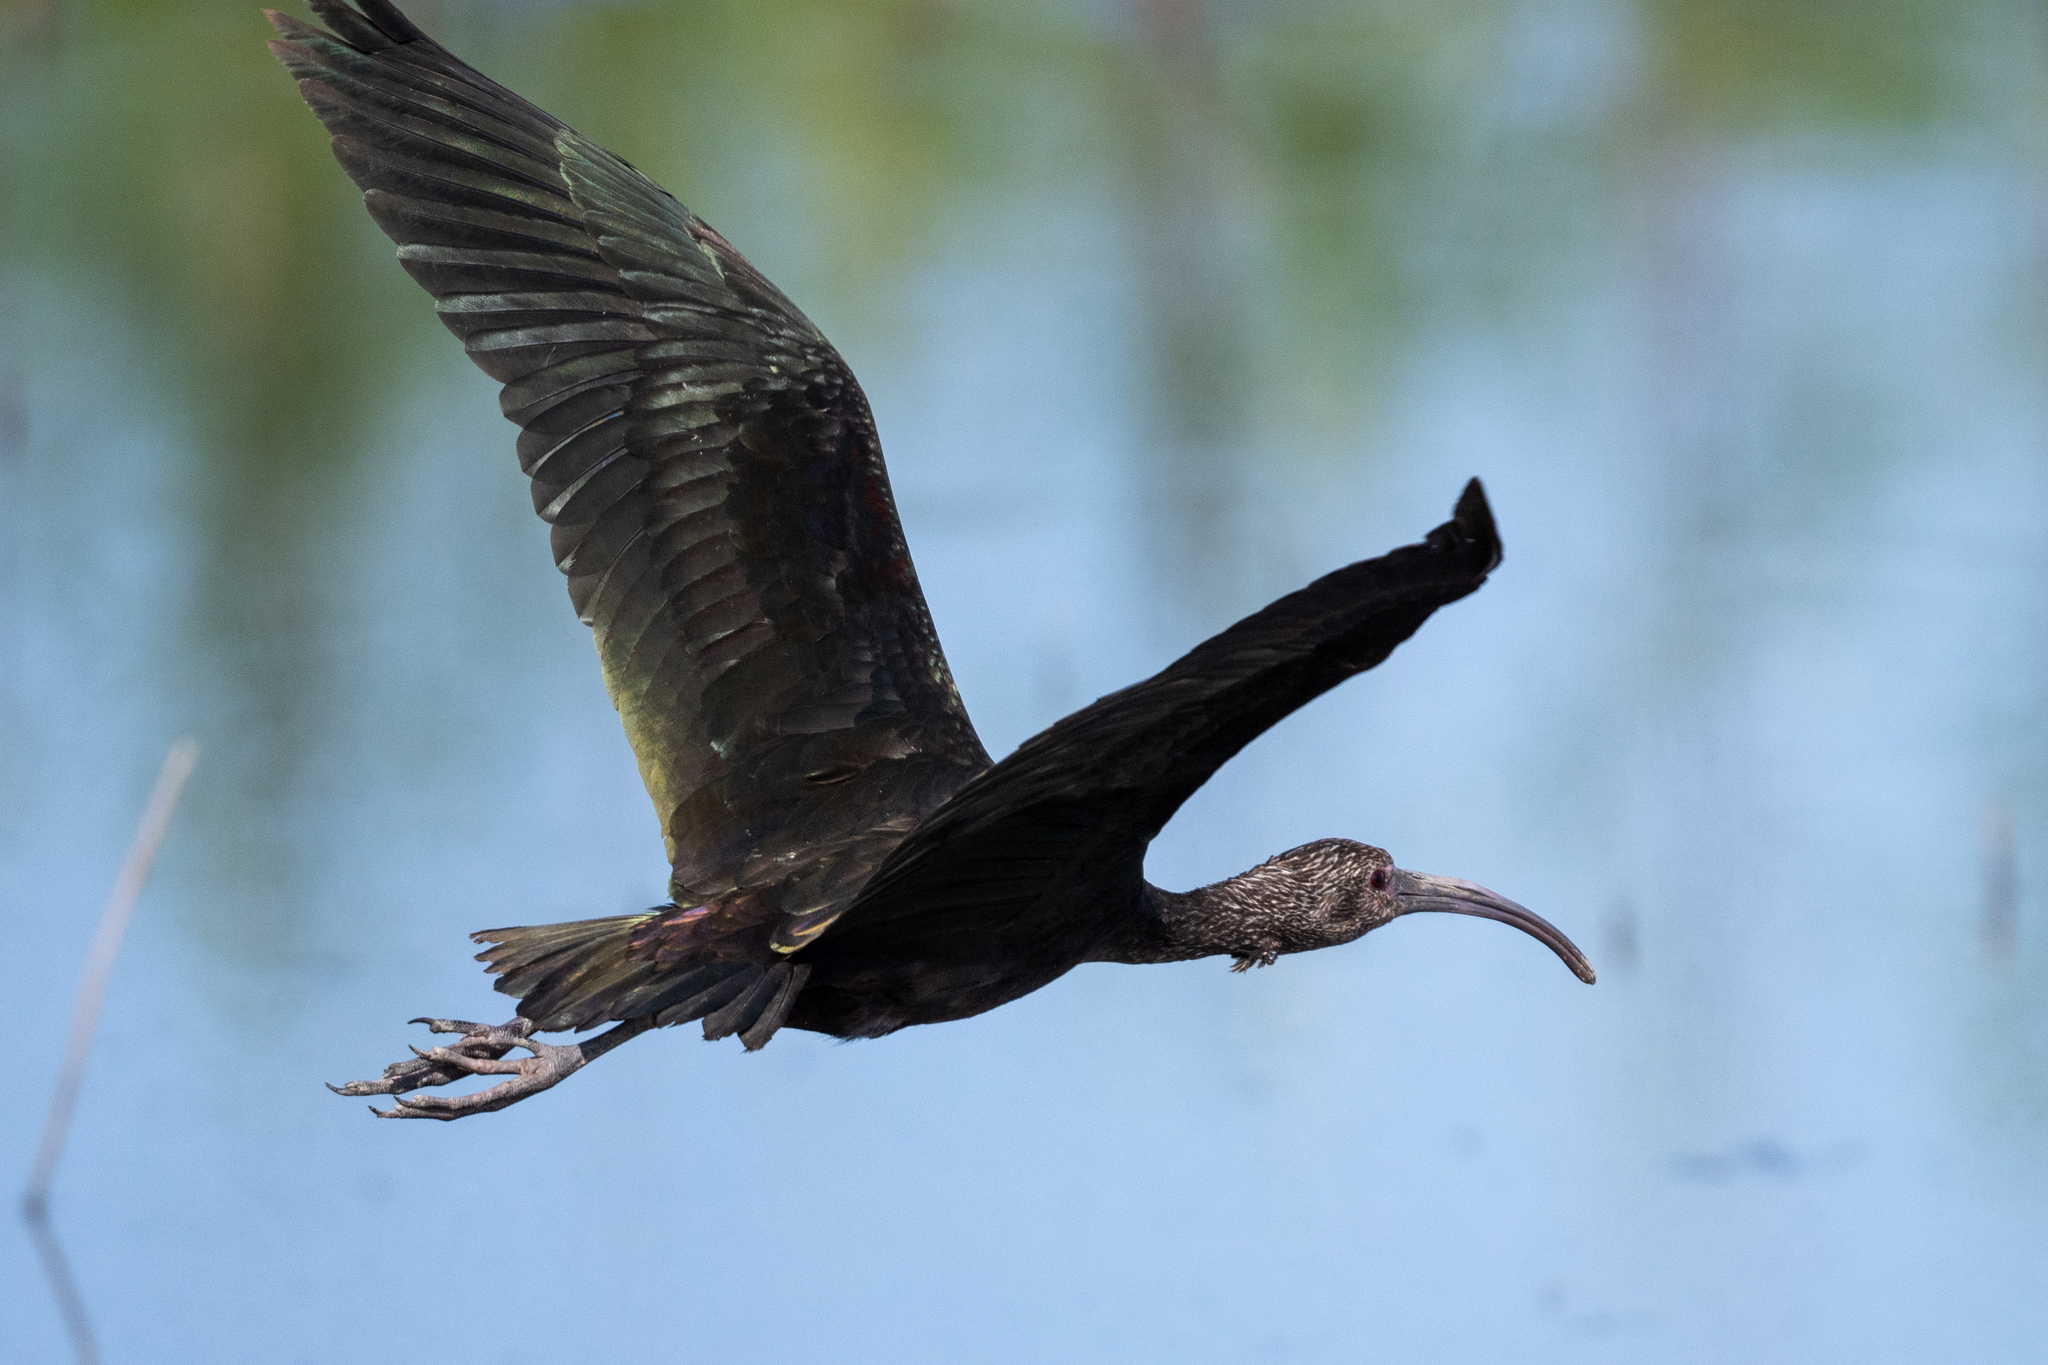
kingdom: Animalia
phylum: Chordata
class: Aves
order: Pelecaniformes
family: Threskiornithidae
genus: Plegadis
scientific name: Plegadis chihi
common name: White-faced ibis
